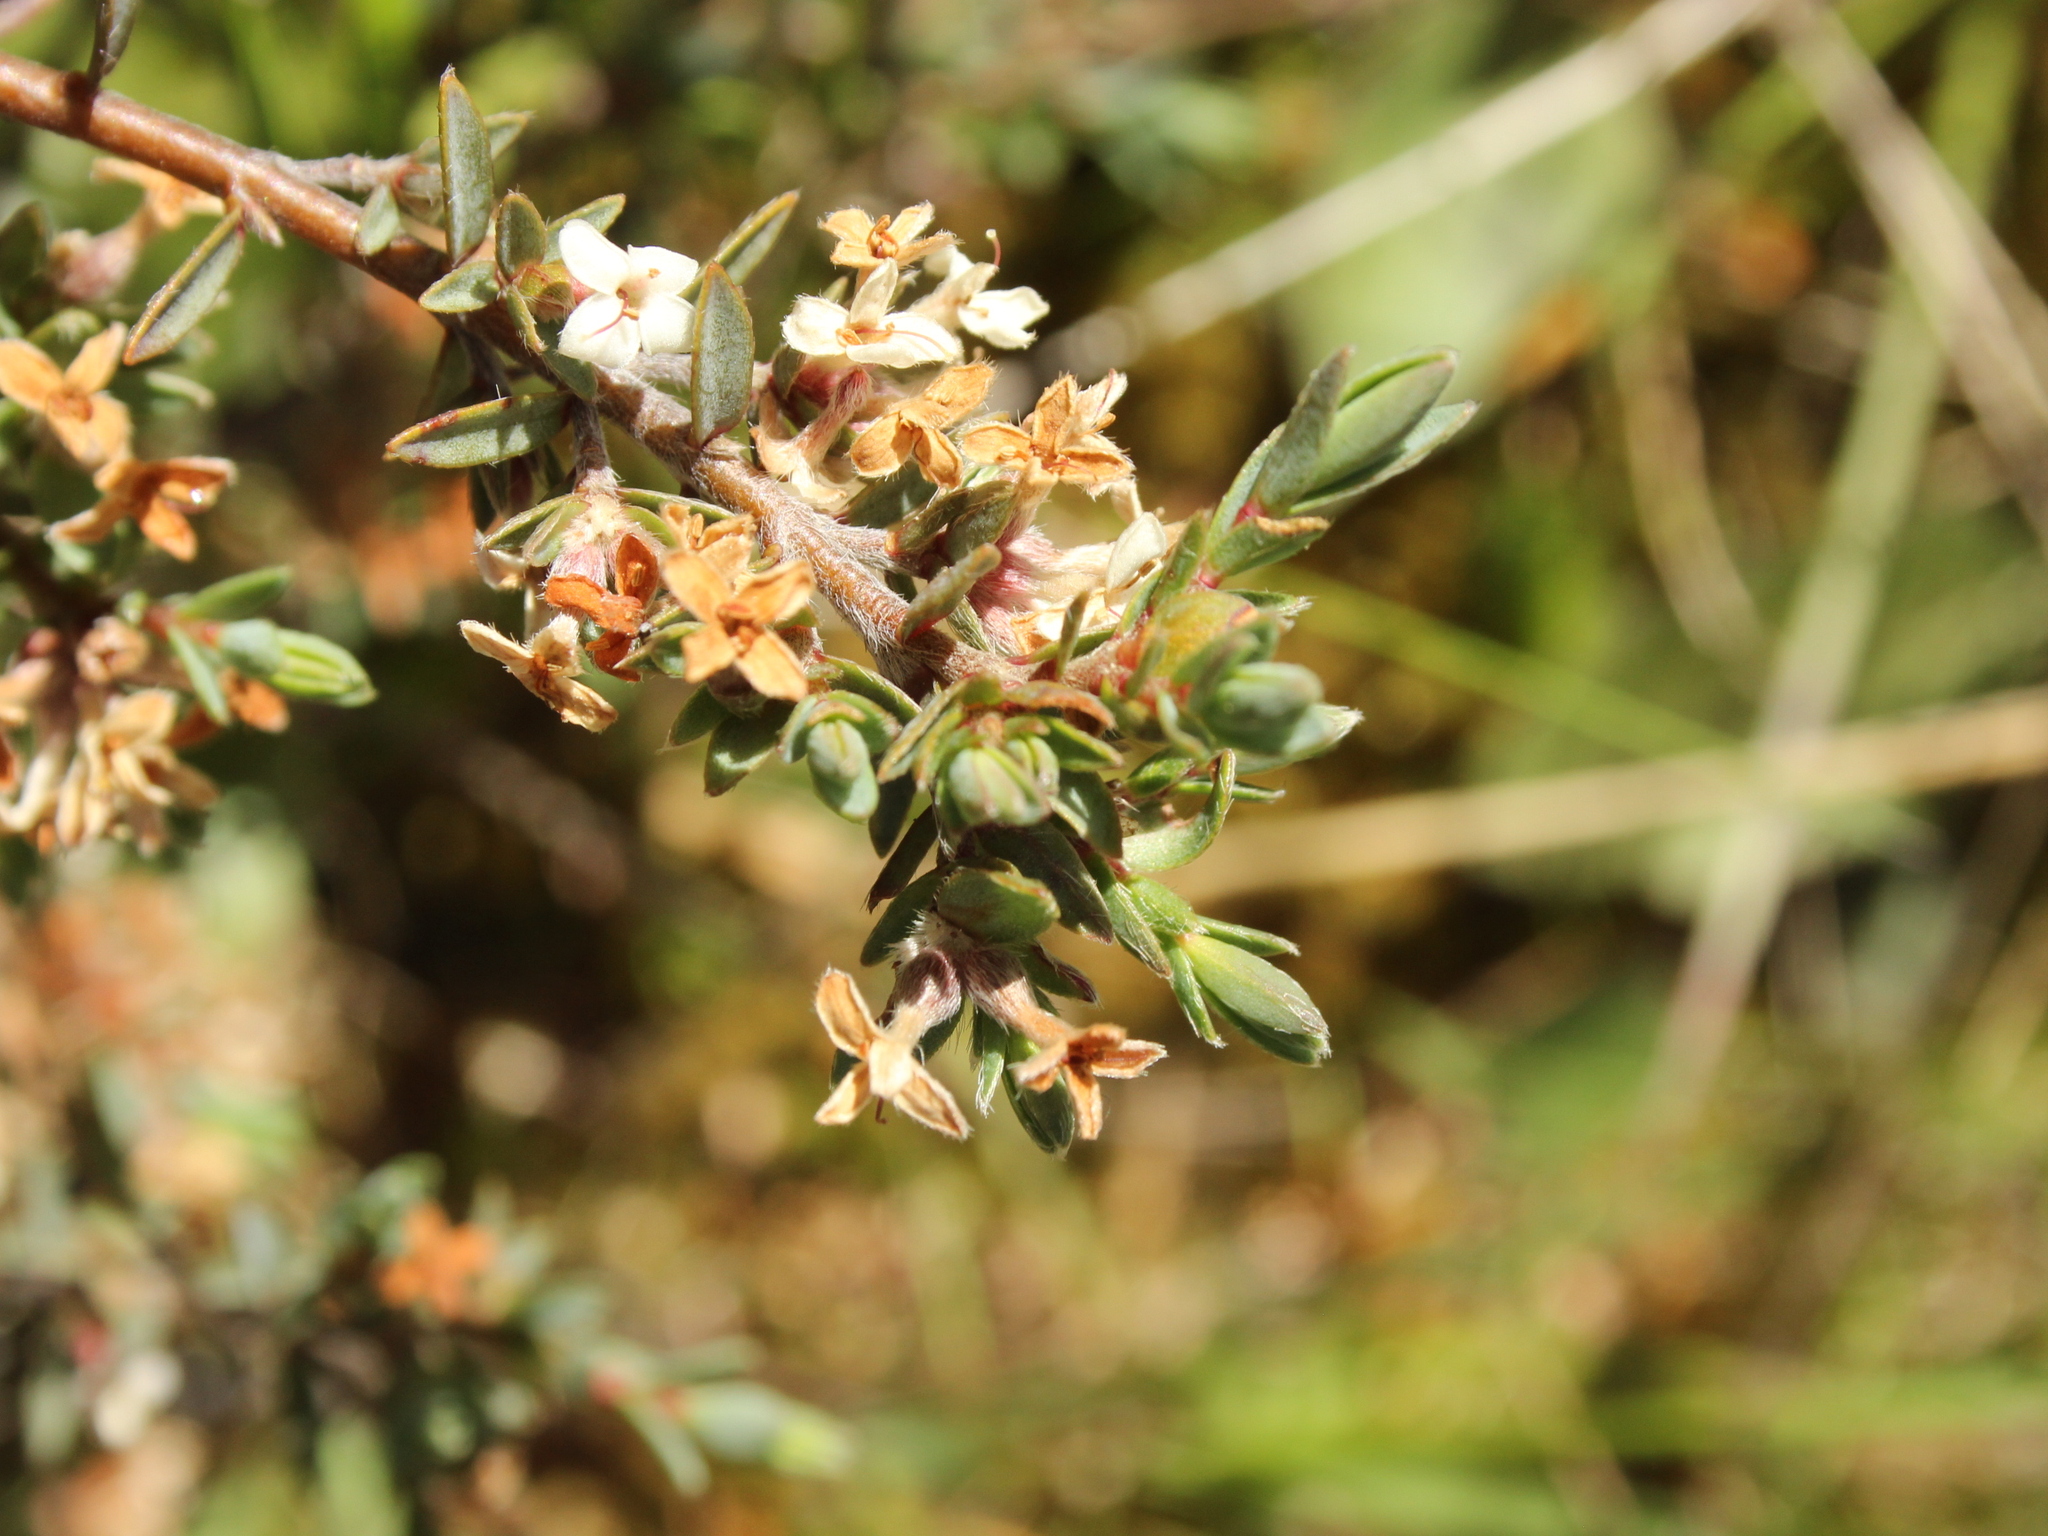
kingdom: Plantae
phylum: Tracheophyta
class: Magnoliopsida
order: Malvales
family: Thymelaeaceae
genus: Pimelea
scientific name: Pimelea oreophila
